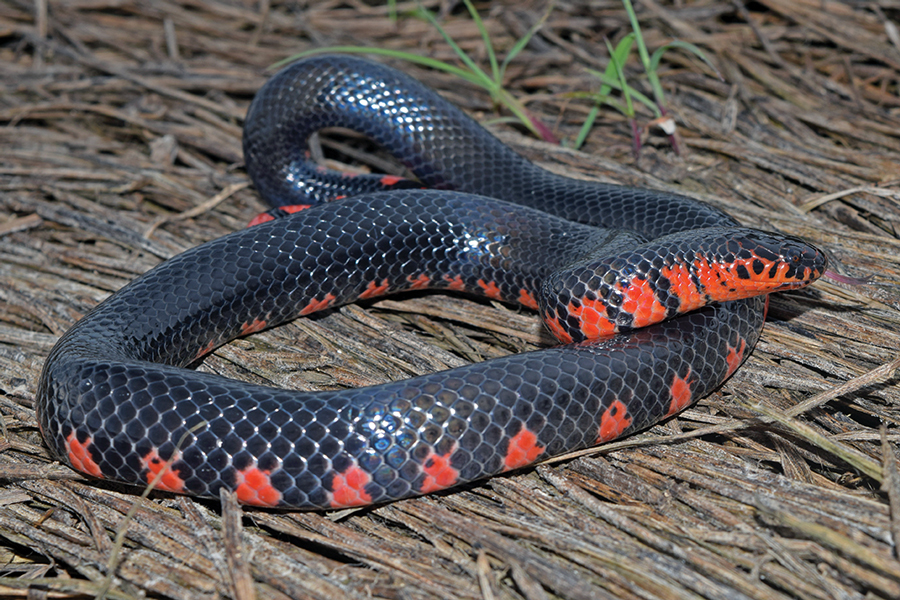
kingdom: Animalia
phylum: Chordata
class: Squamata
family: Colubridae
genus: Farancia
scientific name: Farancia abacura
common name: Mud snake
